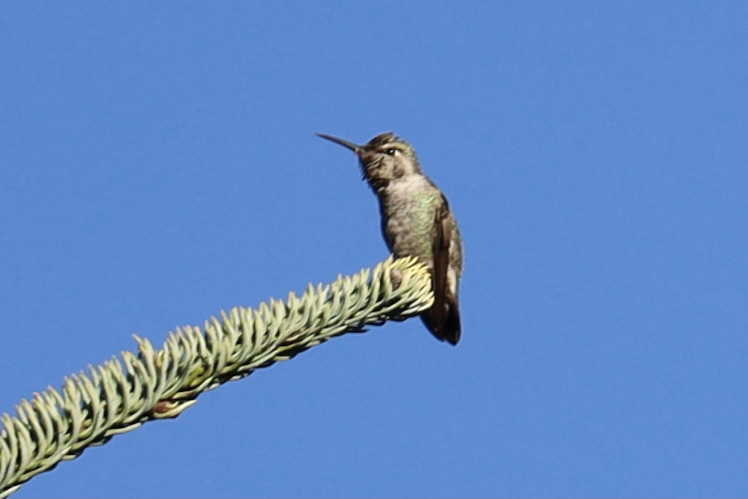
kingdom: Animalia
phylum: Chordata
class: Aves
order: Apodiformes
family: Trochilidae
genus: Calypte
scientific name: Calypte anna
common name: Anna's hummingbird
